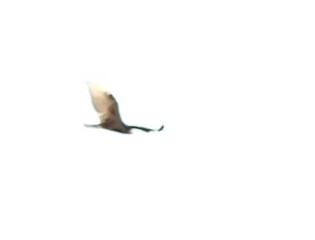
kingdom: Animalia
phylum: Chordata
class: Aves
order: Accipitriformes
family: Cathartidae
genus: Cathartes
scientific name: Cathartes aura
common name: Turkey vulture
